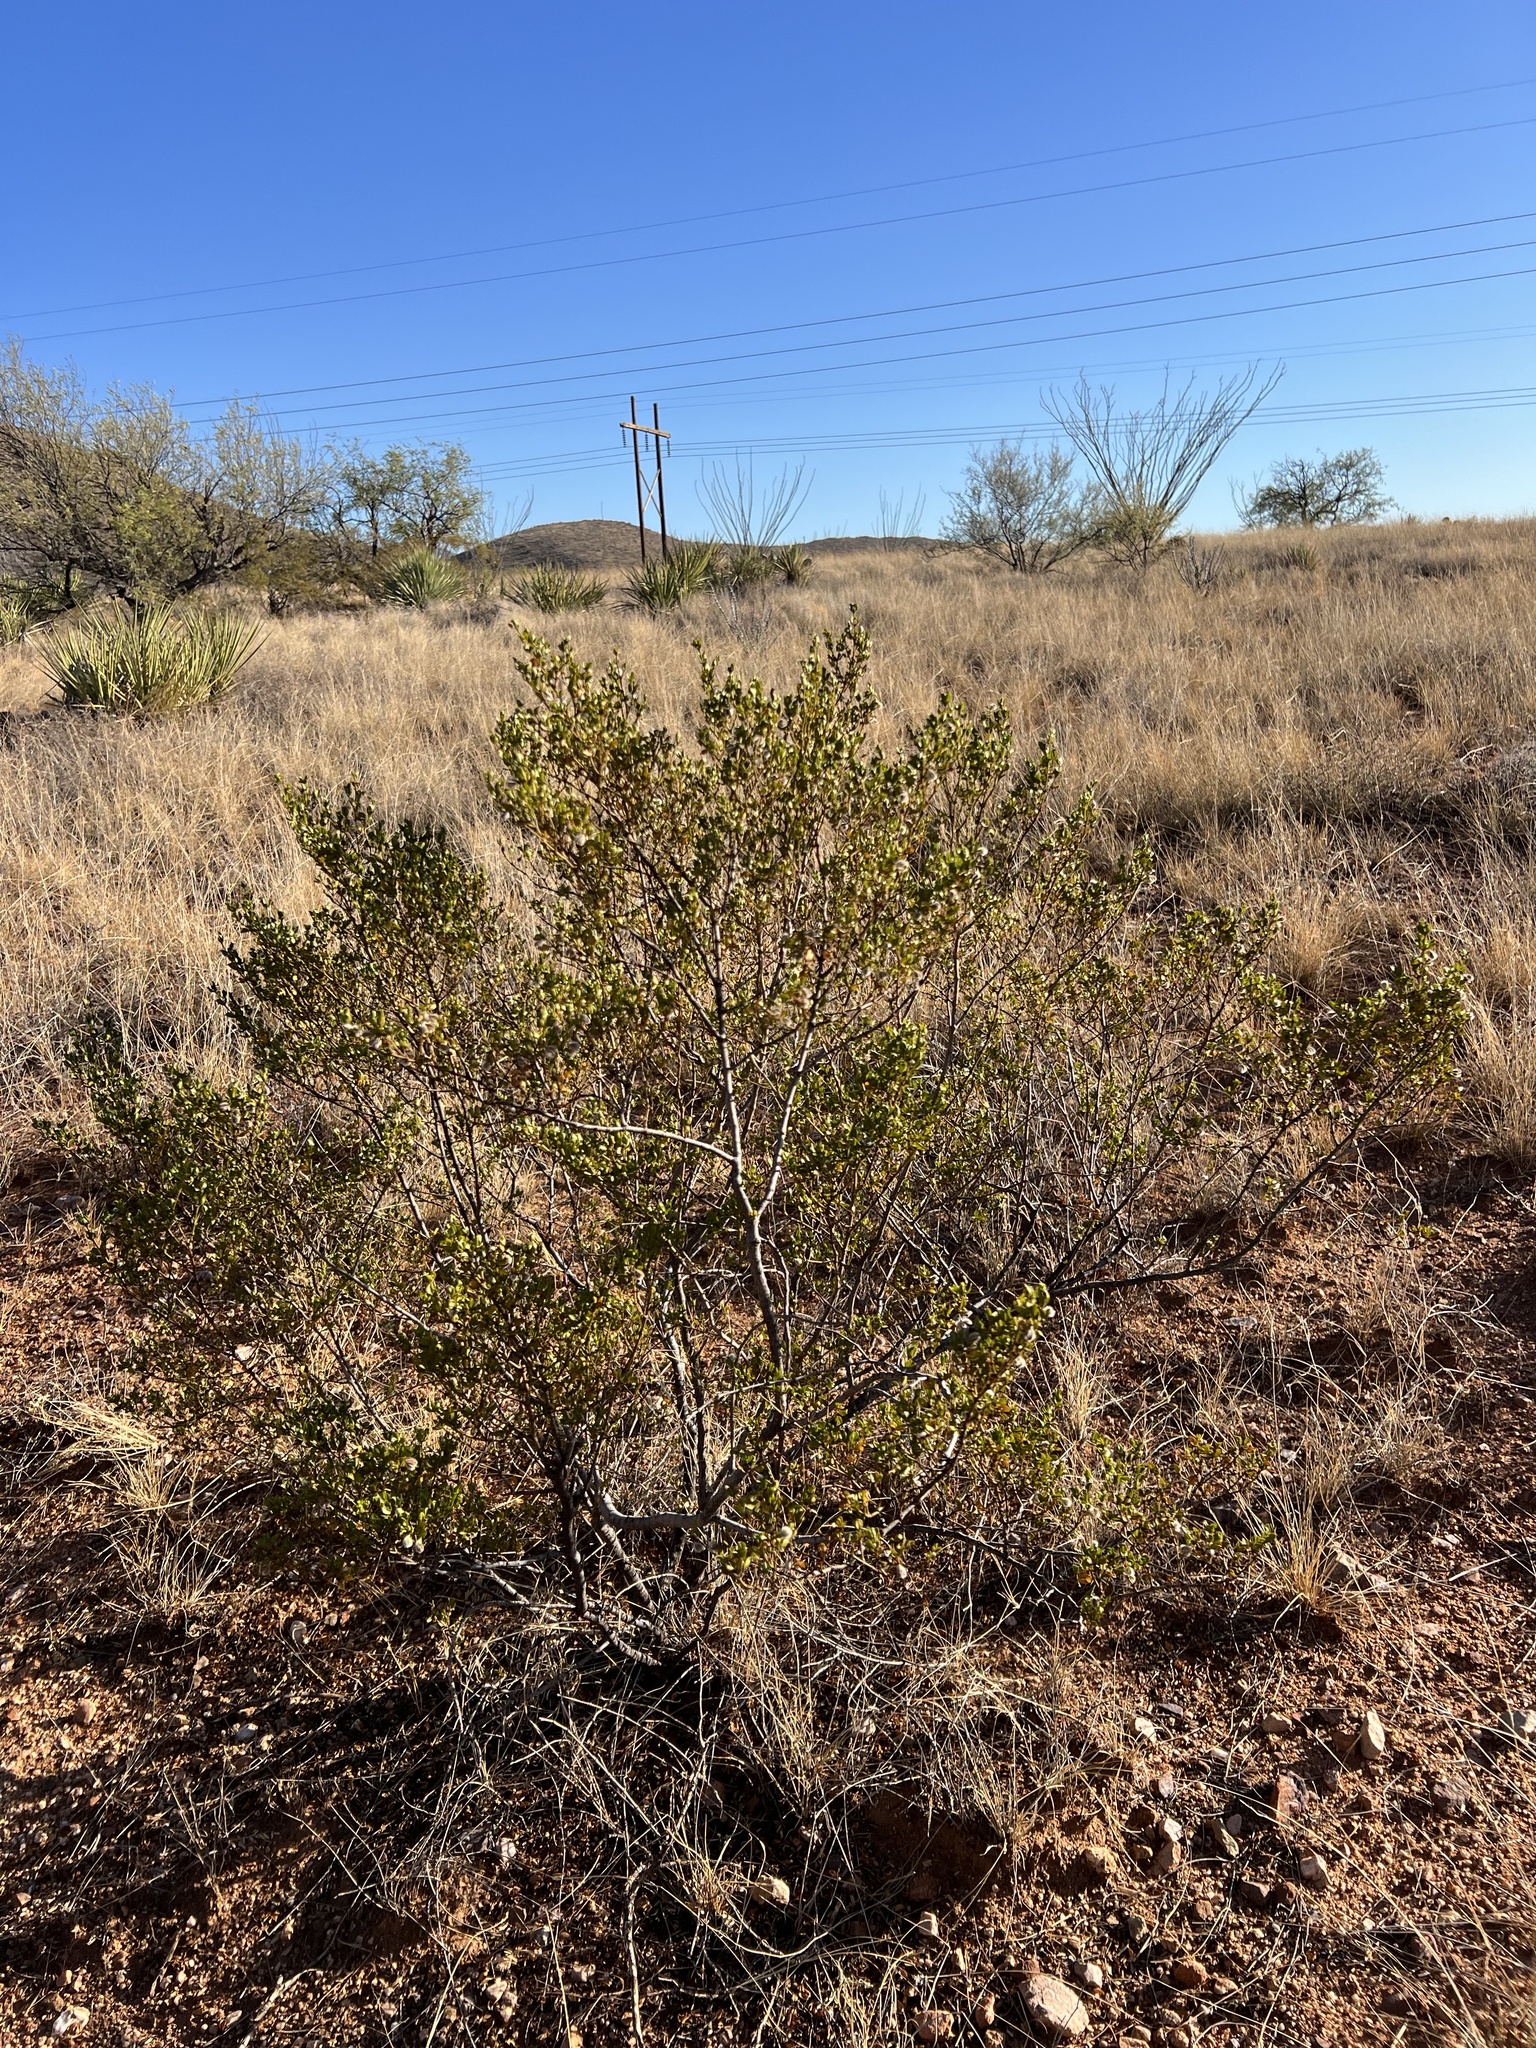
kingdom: Plantae
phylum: Tracheophyta
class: Magnoliopsida
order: Zygophyllales
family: Zygophyllaceae
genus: Larrea
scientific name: Larrea tridentata
